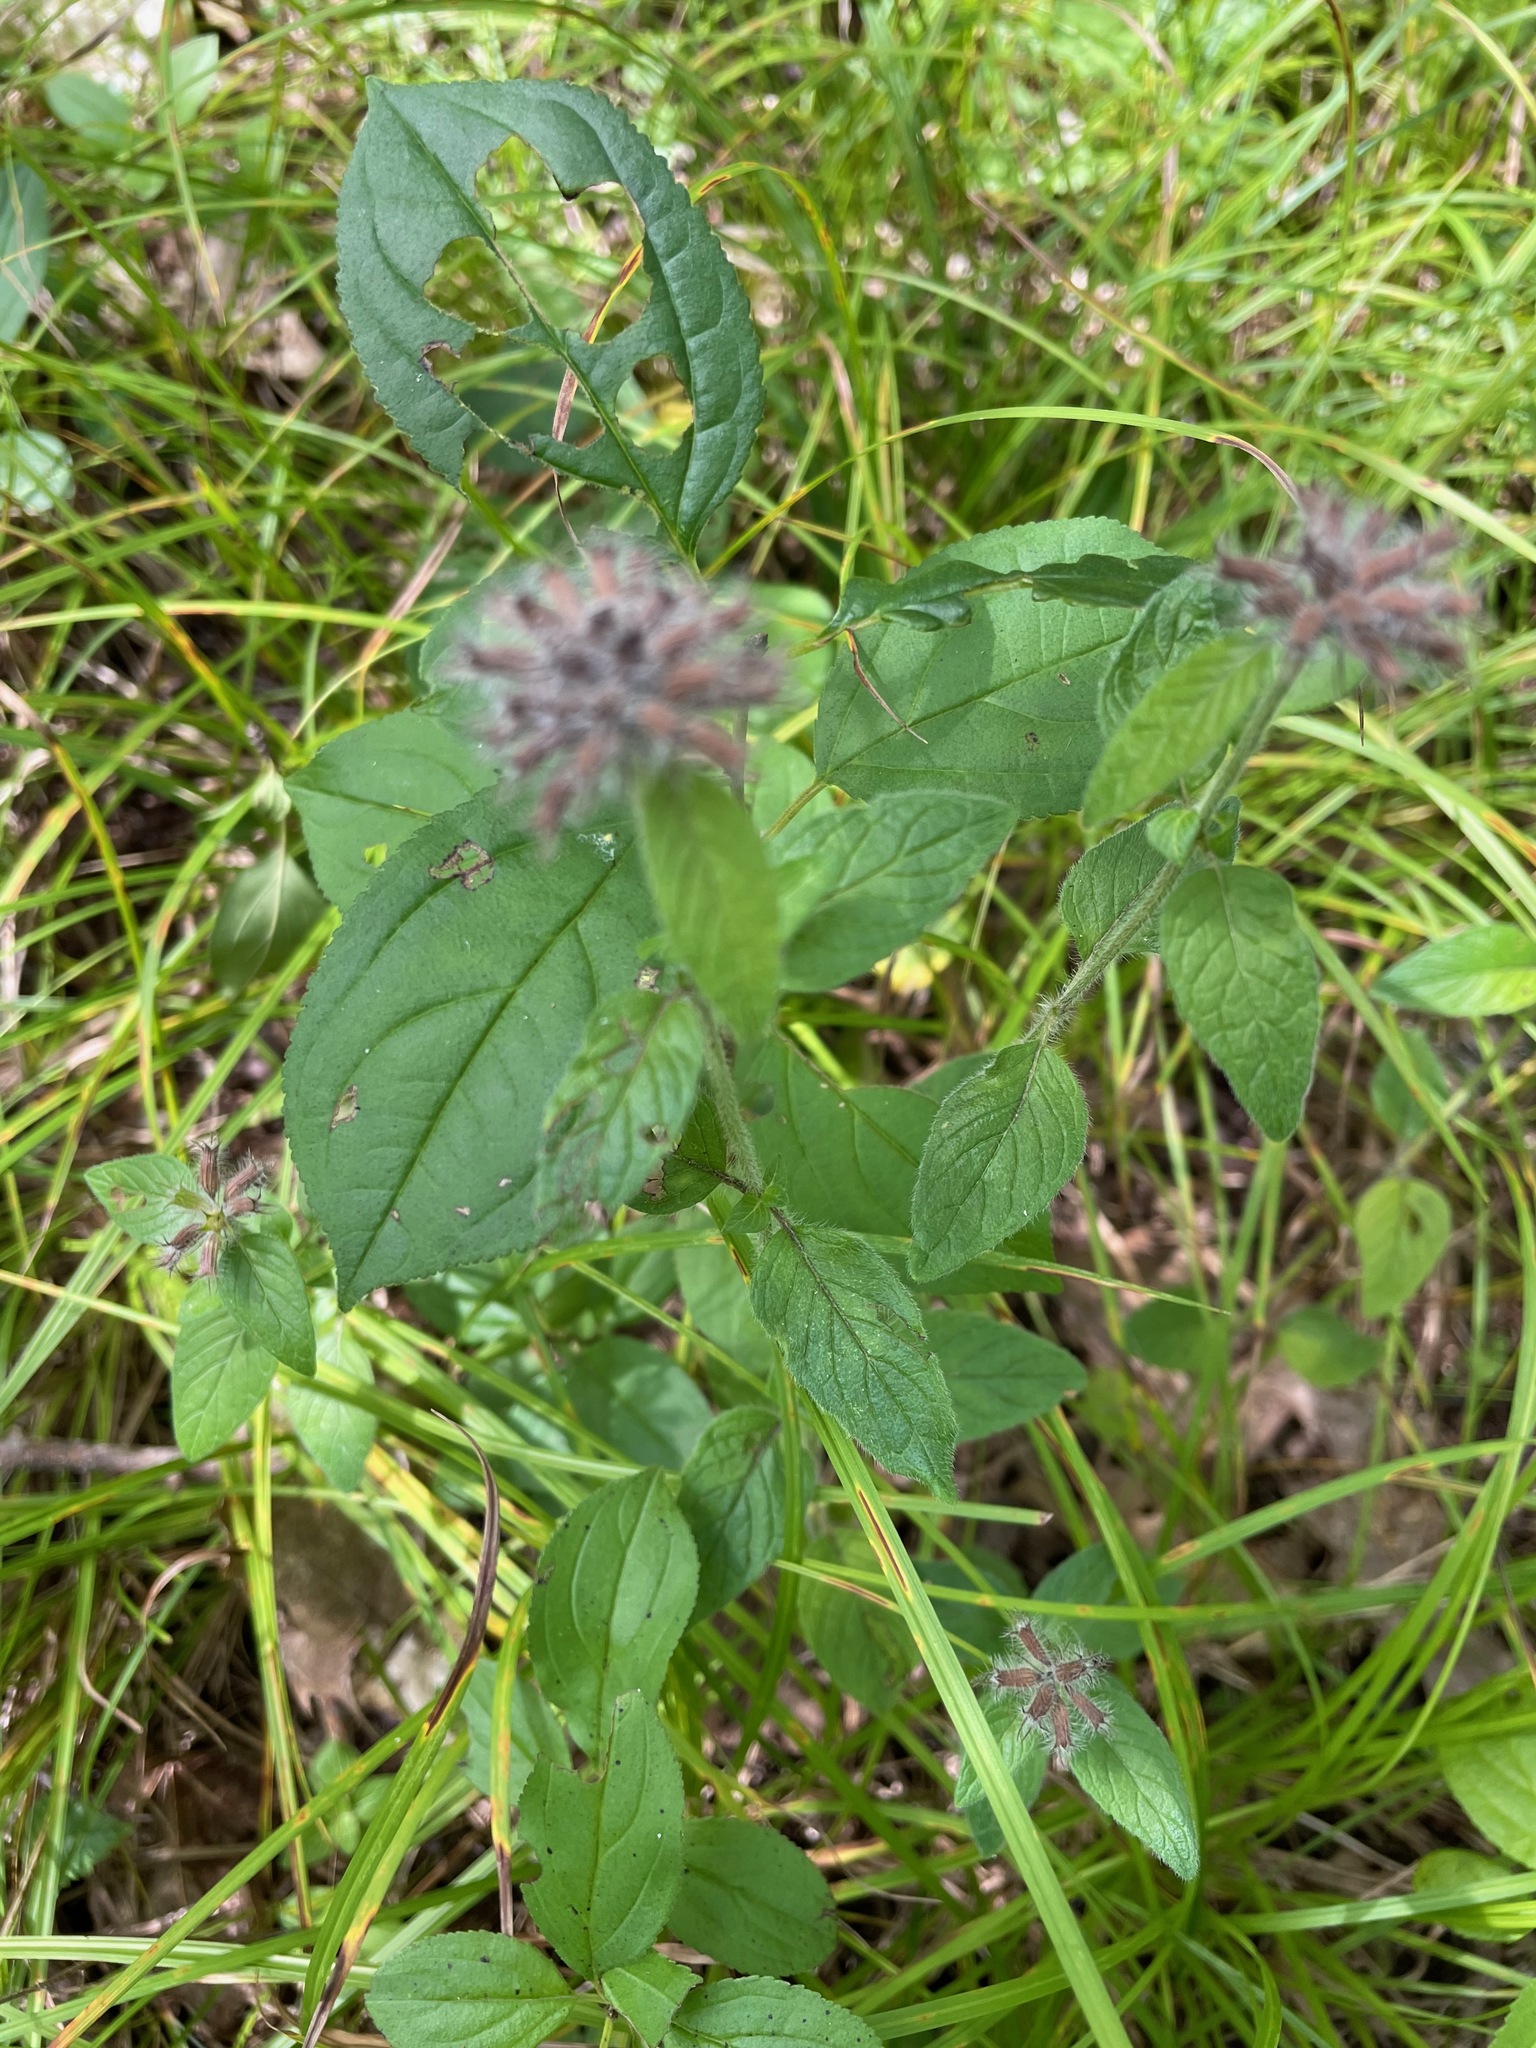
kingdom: Plantae
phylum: Tracheophyta
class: Magnoliopsida
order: Lamiales
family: Lamiaceae
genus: Clinopodium
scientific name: Clinopodium vulgare
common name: Wild basil
